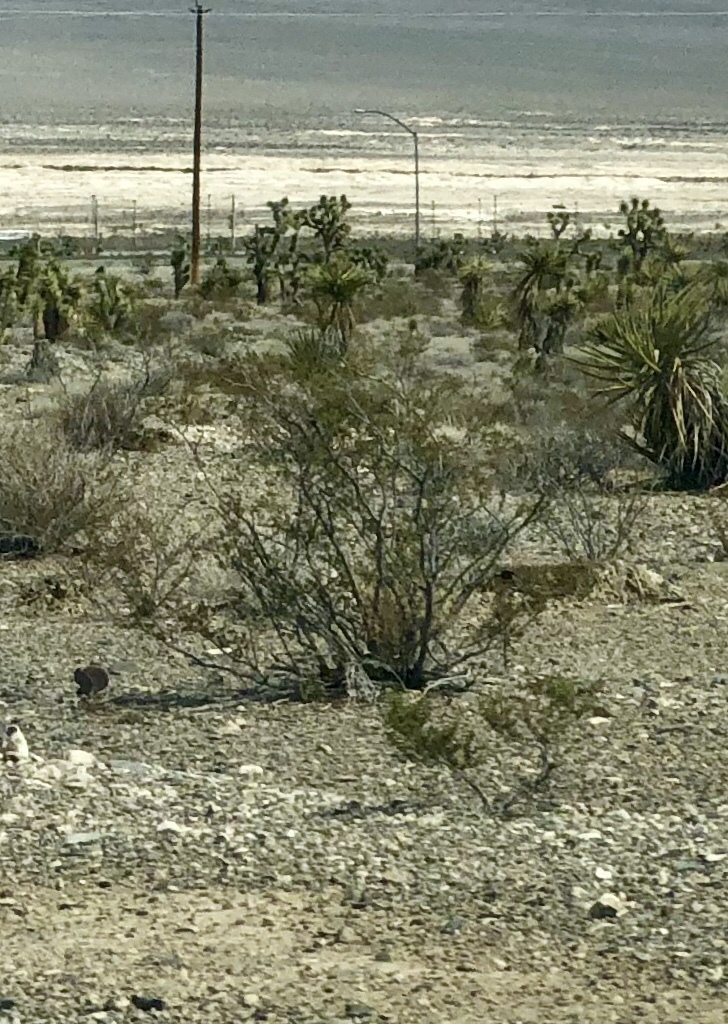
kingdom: Plantae
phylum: Tracheophyta
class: Magnoliopsida
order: Zygophyllales
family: Zygophyllaceae
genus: Larrea
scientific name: Larrea tridentata
